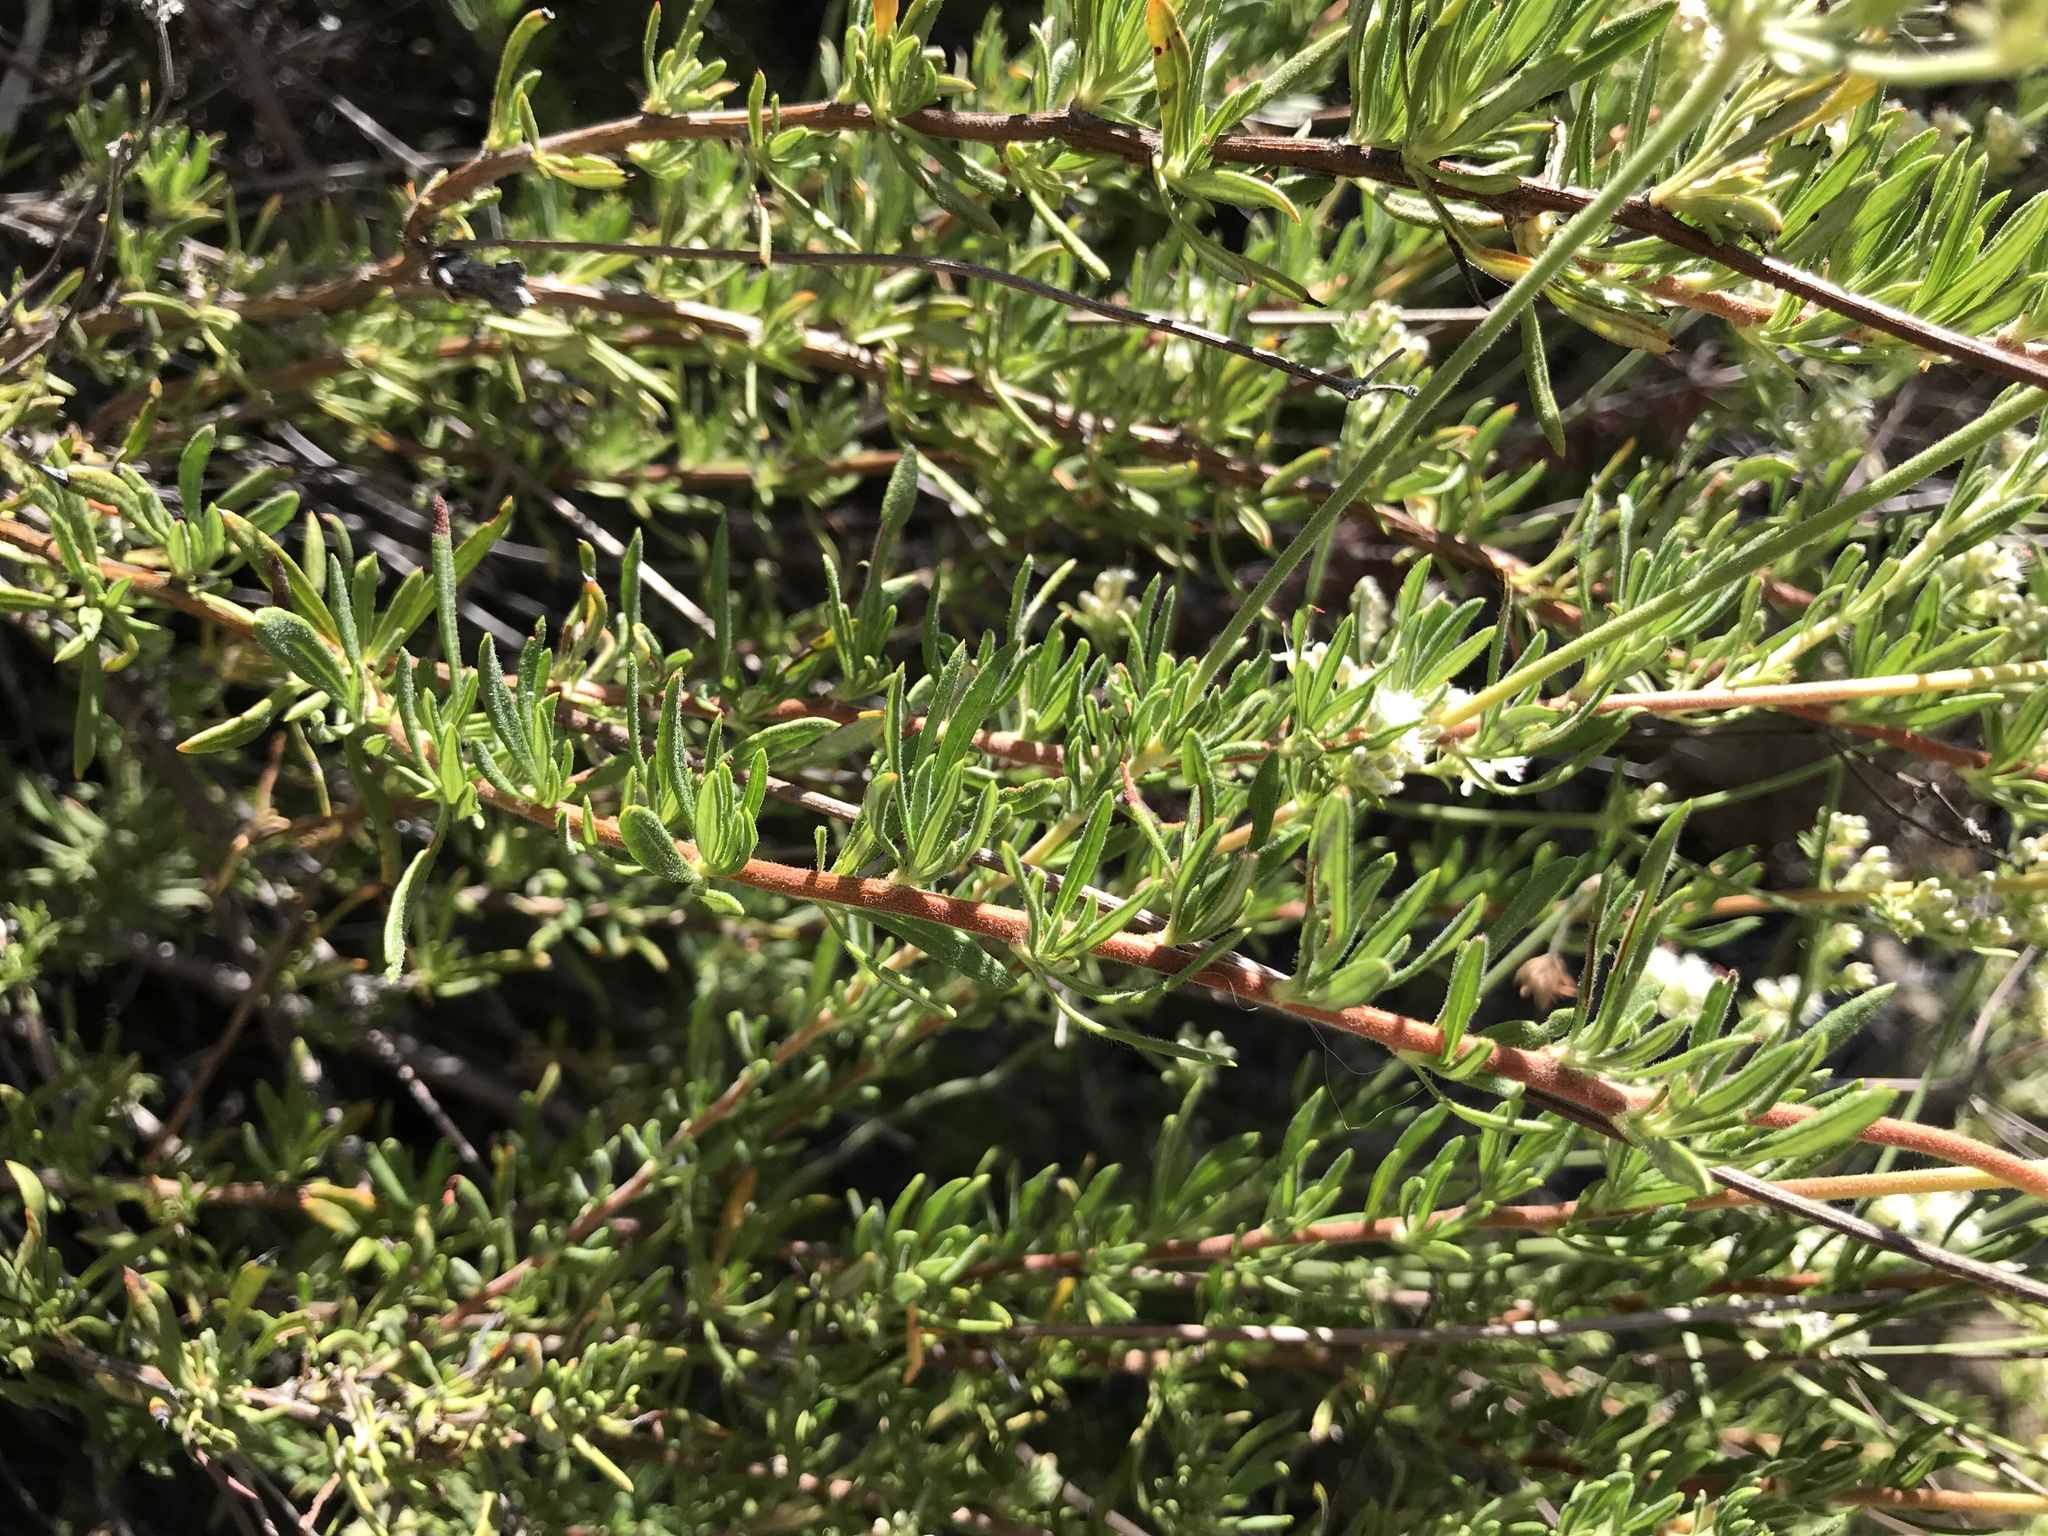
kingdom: Plantae
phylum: Tracheophyta
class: Magnoliopsida
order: Caryophyllales
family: Polygonaceae
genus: Eriogonum
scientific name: Eriogonum fasciculatum
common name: California wild buckwheat
